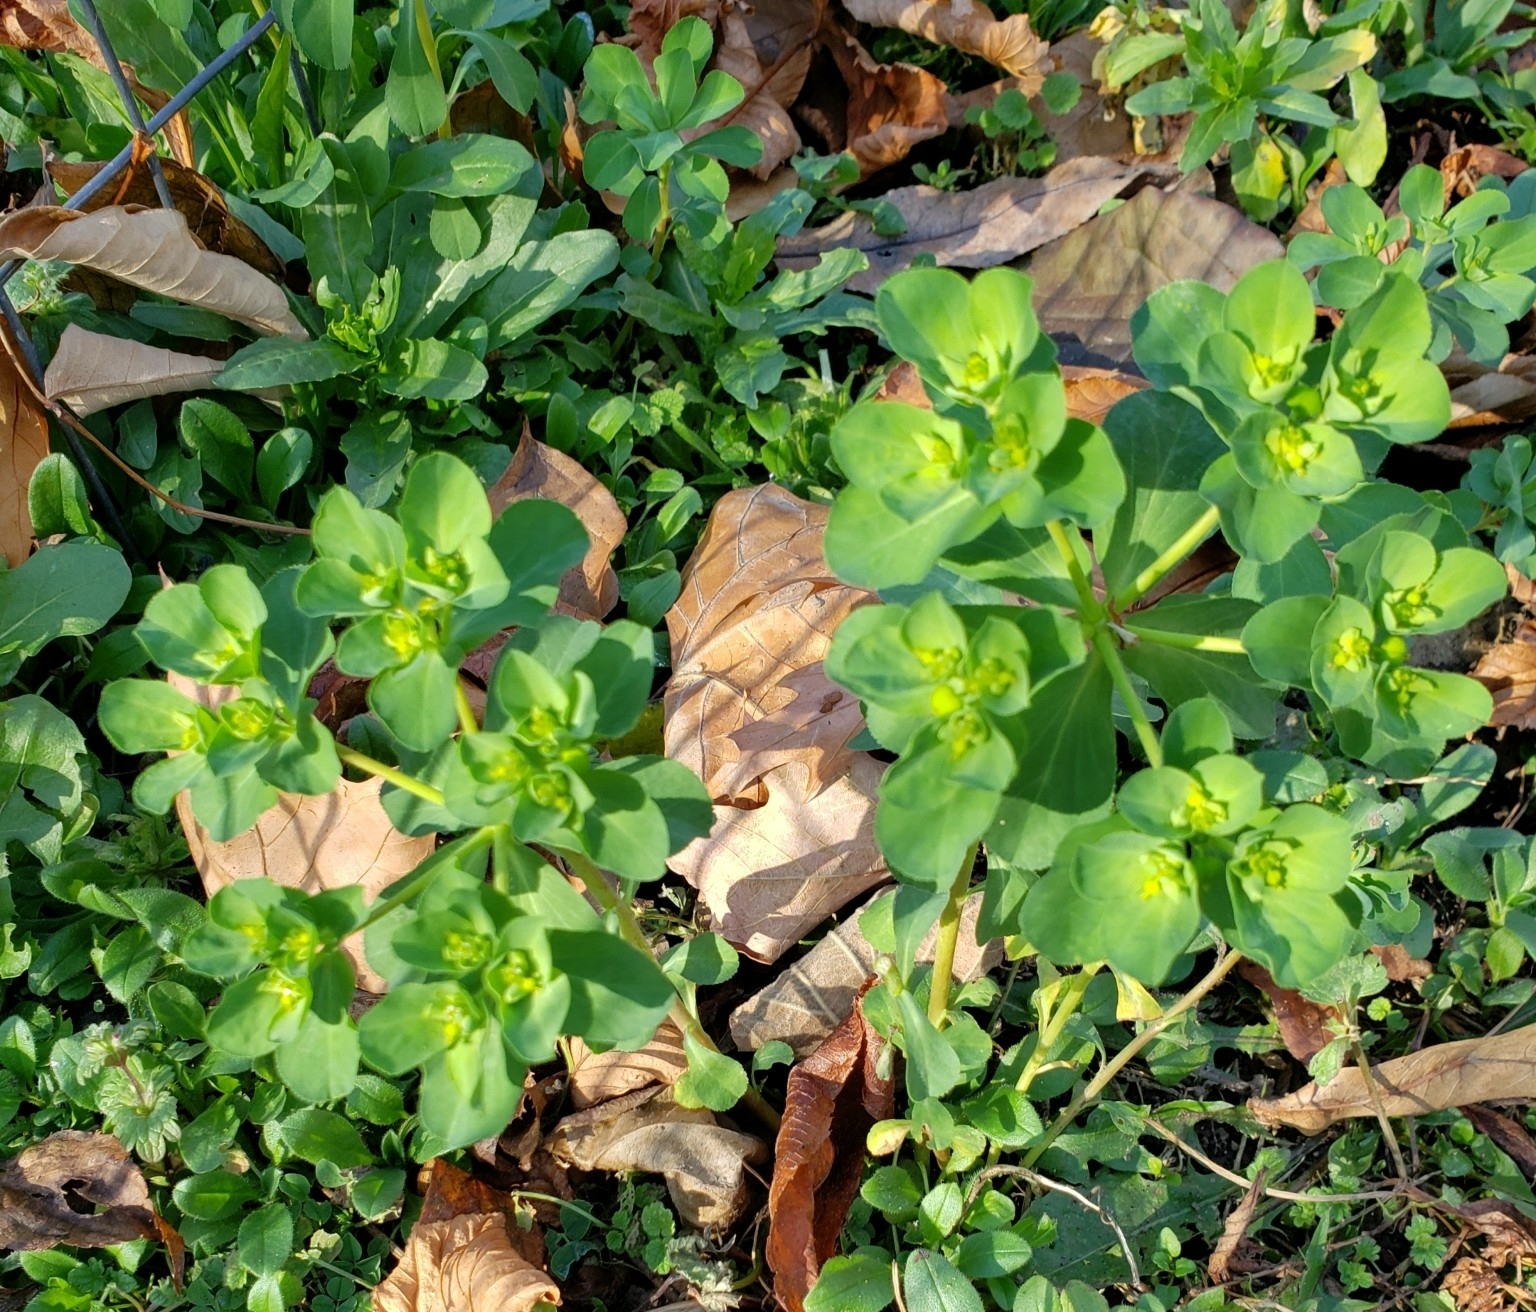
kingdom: Plantae
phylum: Tracheophyta
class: Magnoliopsida
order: Malpighiales
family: Euphorbiaceae
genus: Euphorbia
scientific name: Euphorbia helioscopia
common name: Sun spurge
